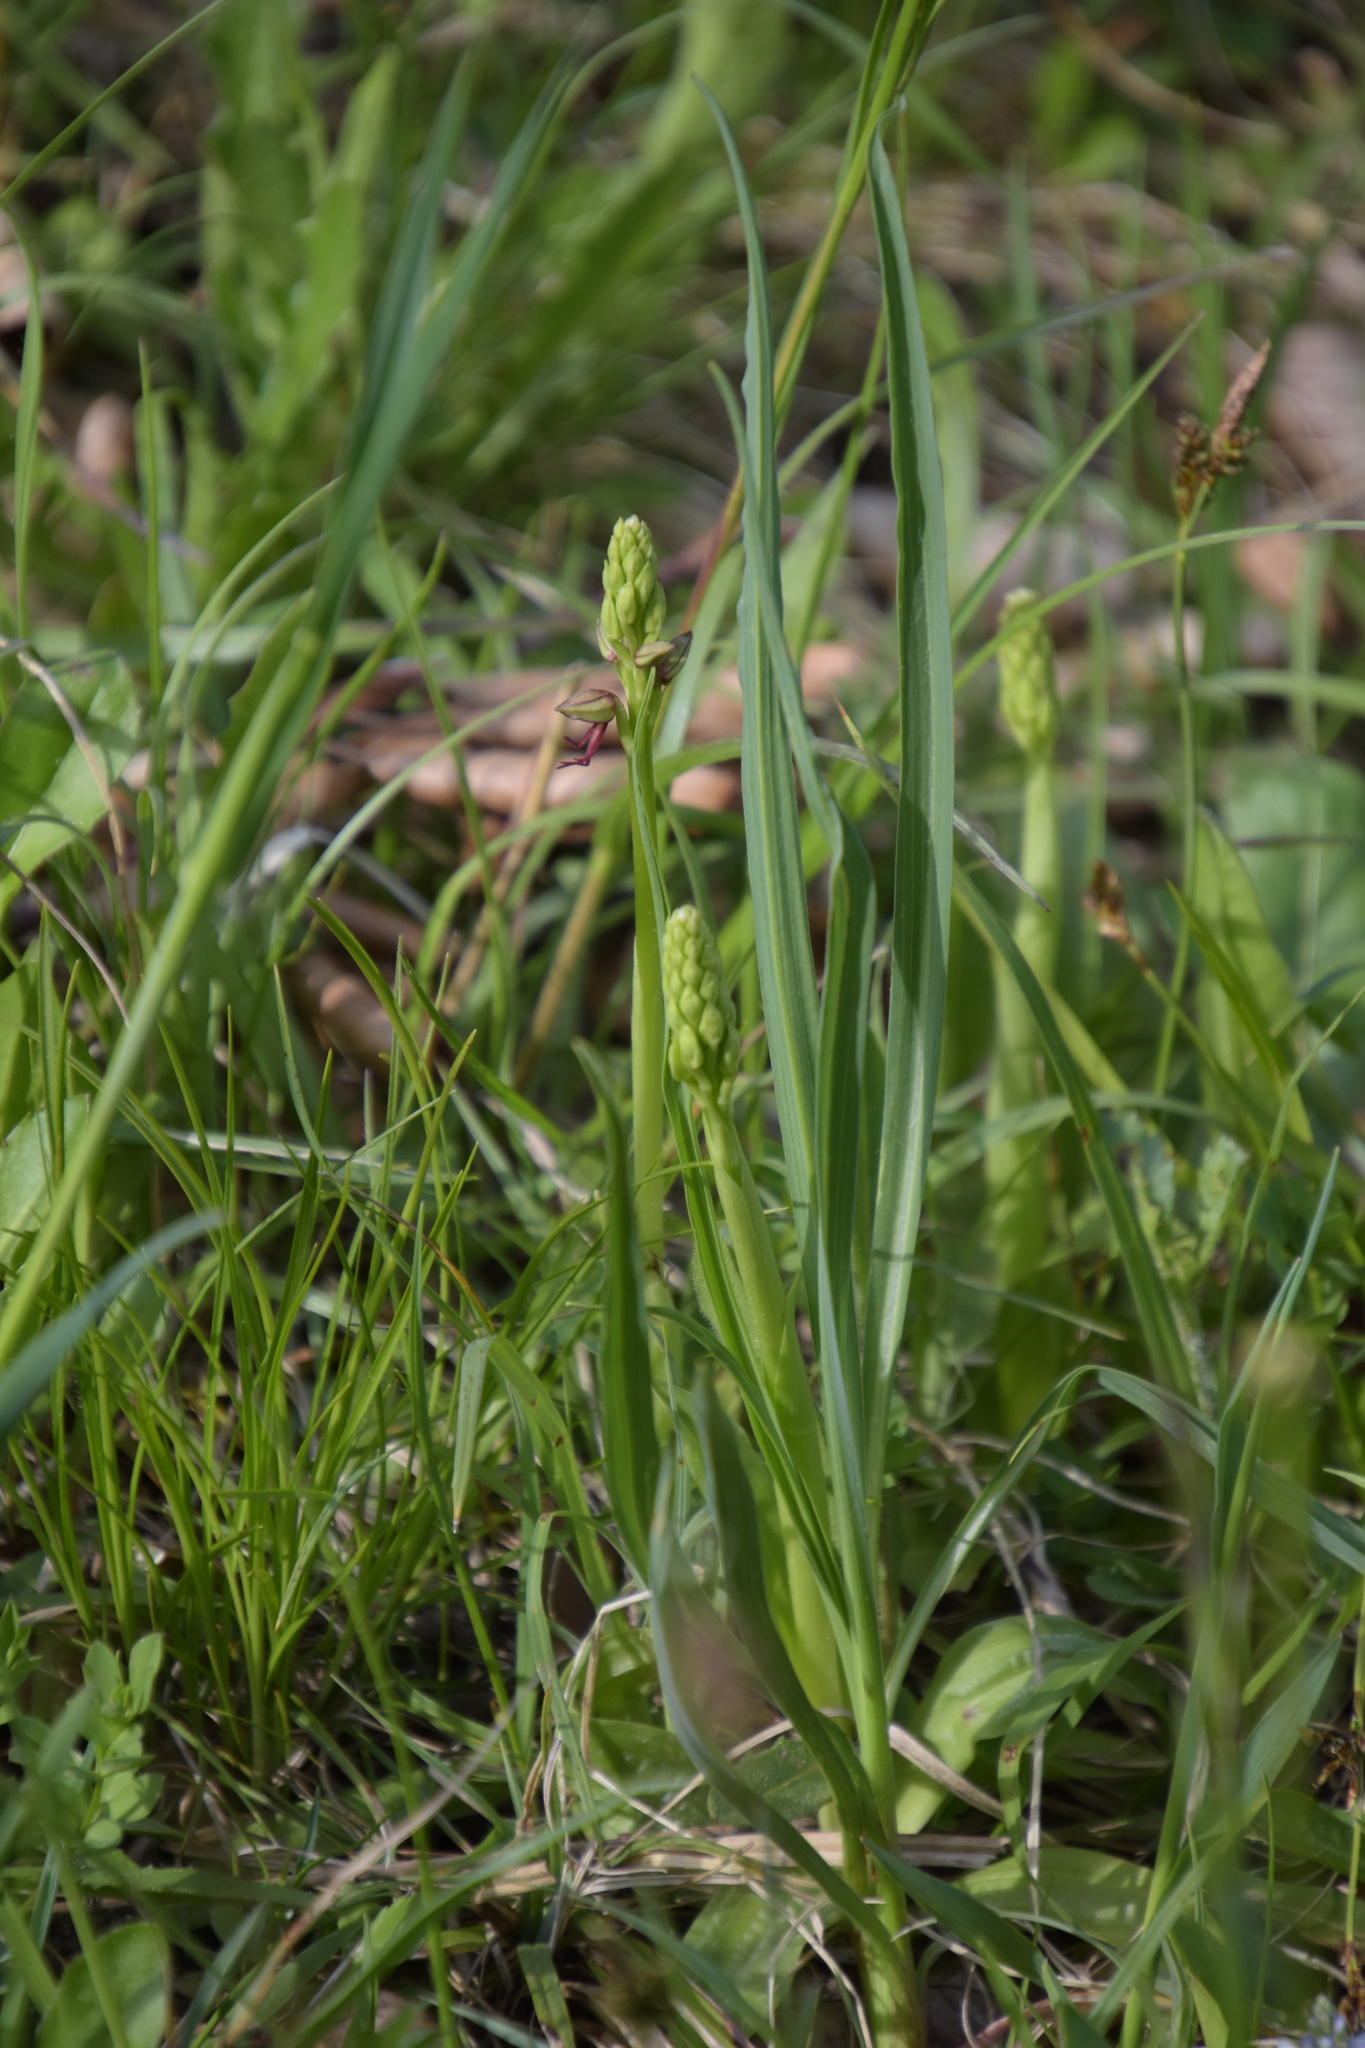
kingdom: Plantae
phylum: Tracheophyta
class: Liliopsida
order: Asparagales
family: Orchidaceae
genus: Orchis
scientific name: Orchis anthropophora
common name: Man orchid
